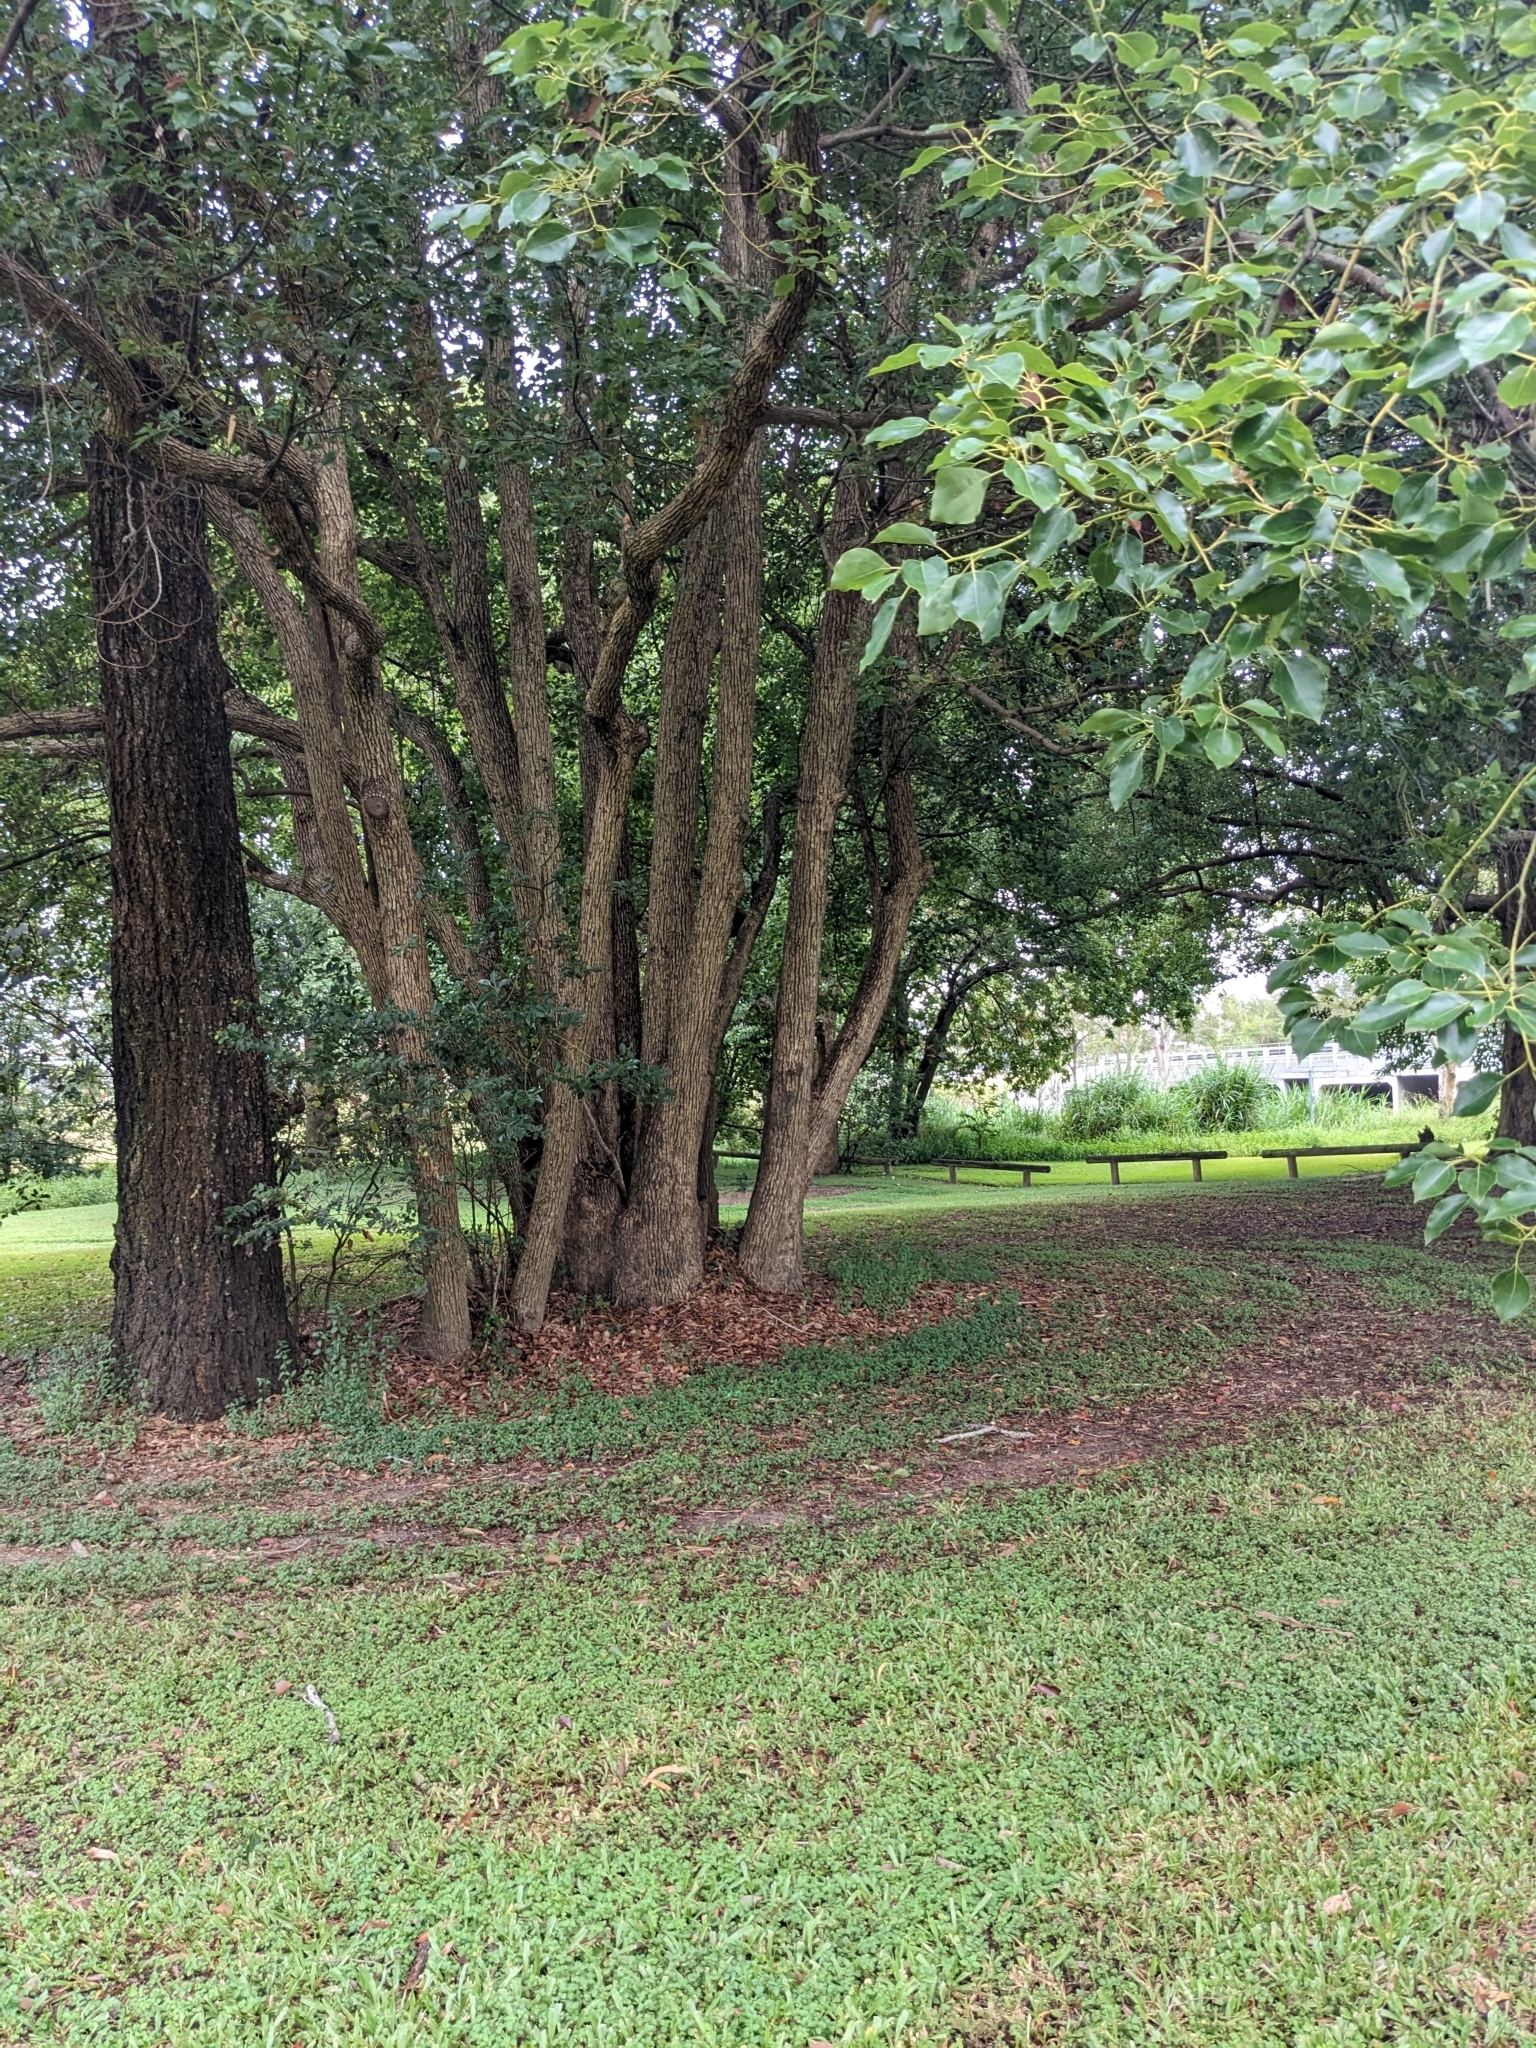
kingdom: Plantae
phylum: Tracheophyta
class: Magnoliopsida
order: Laurales
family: Lauraceae
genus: Cinnamomum
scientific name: Cinnamomum camphora
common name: Camphortree
